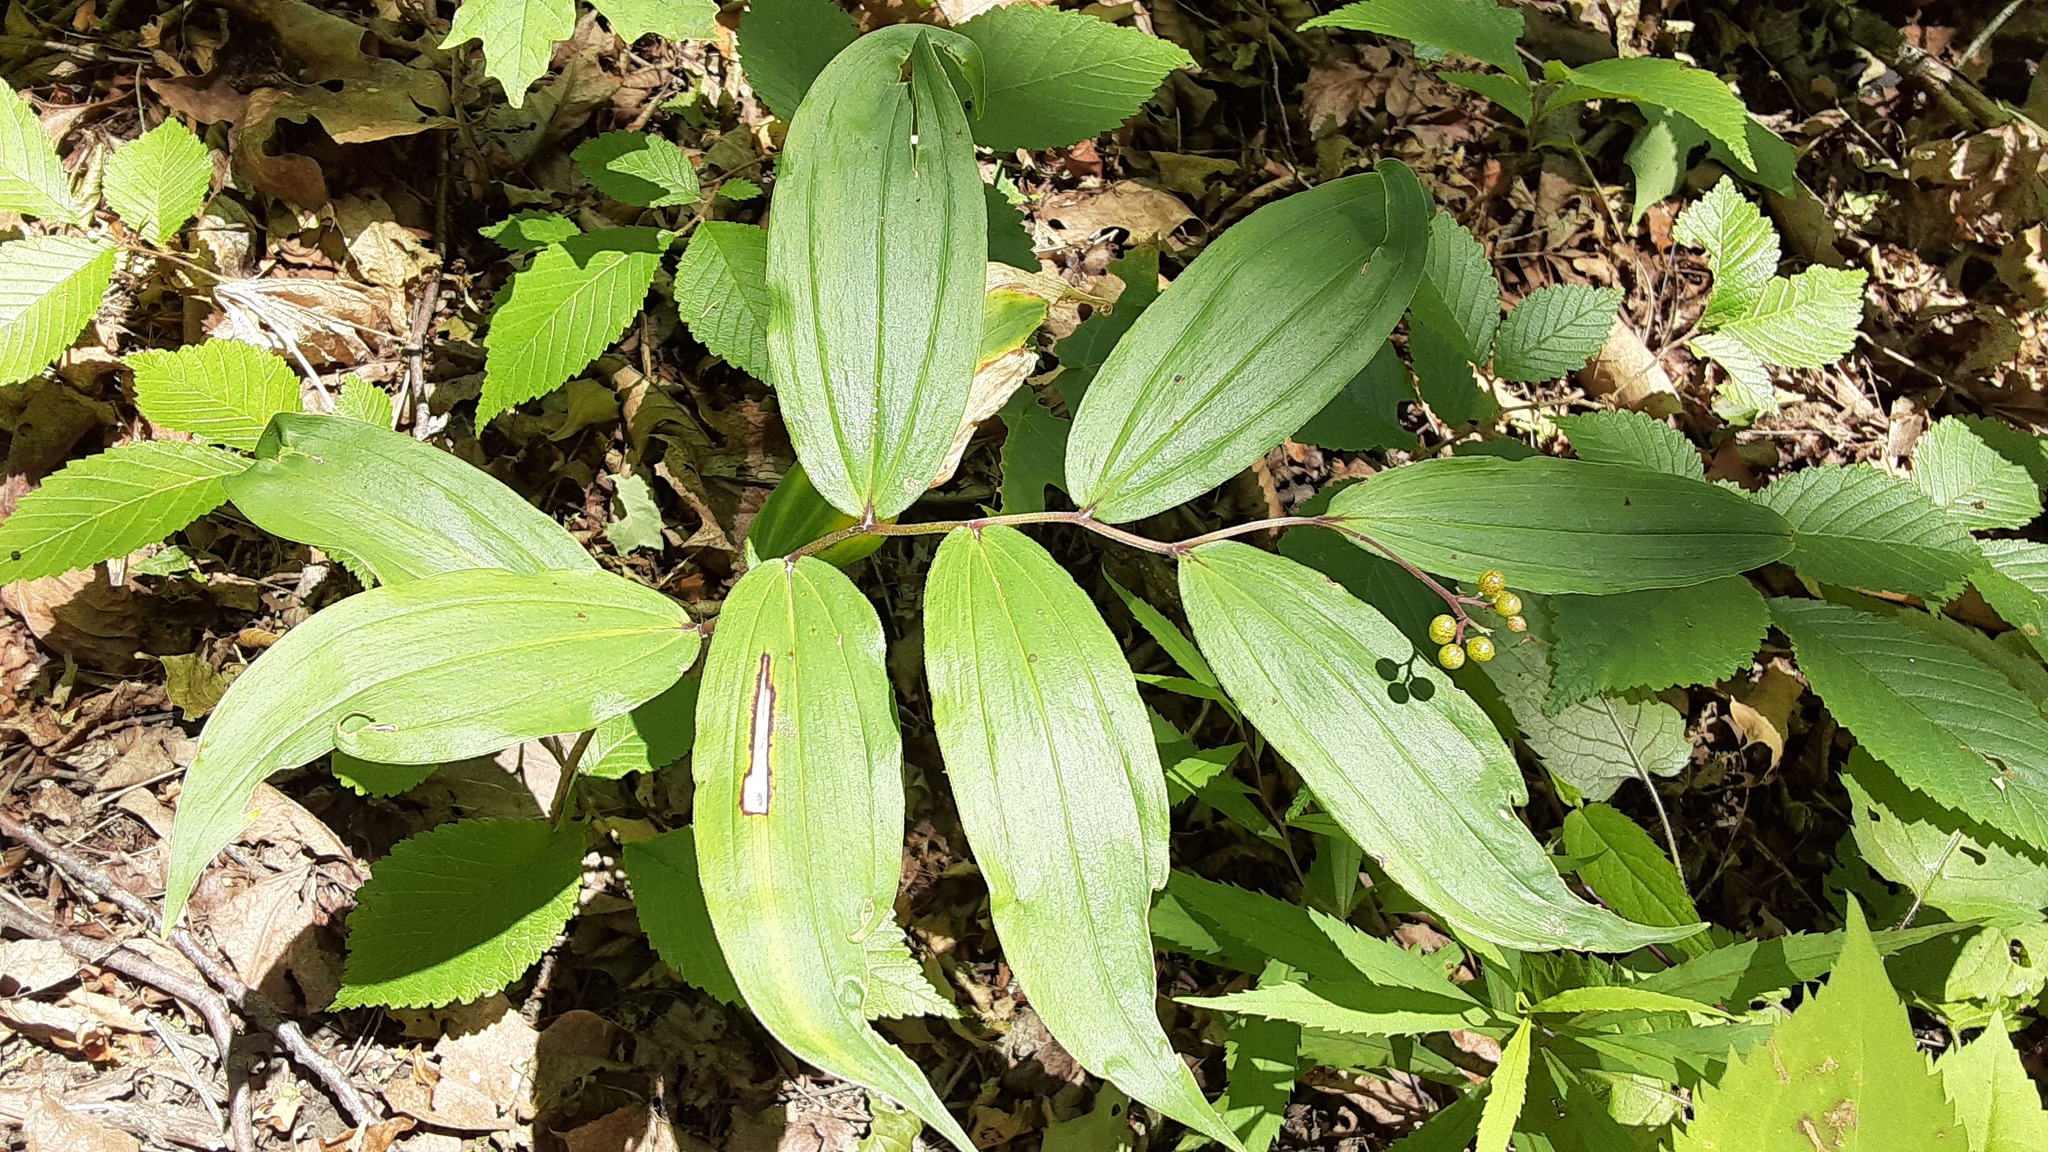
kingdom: Plantae
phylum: Tracheophyta
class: Liliopsida
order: Asparagales
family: Asparagaceae
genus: Maianthemum
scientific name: Maianthemum racemosum
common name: False spikenard
